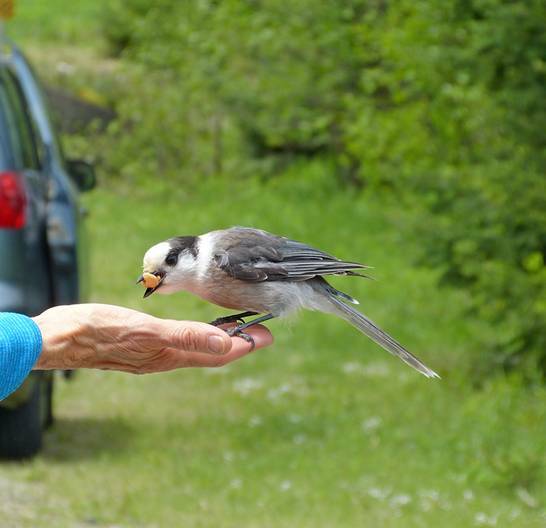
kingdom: Animalia
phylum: Chordata
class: Aves
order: Passeriformes
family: Corvidae
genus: Perisoreus
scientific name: Perisoreus canadensis
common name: Gray jay
